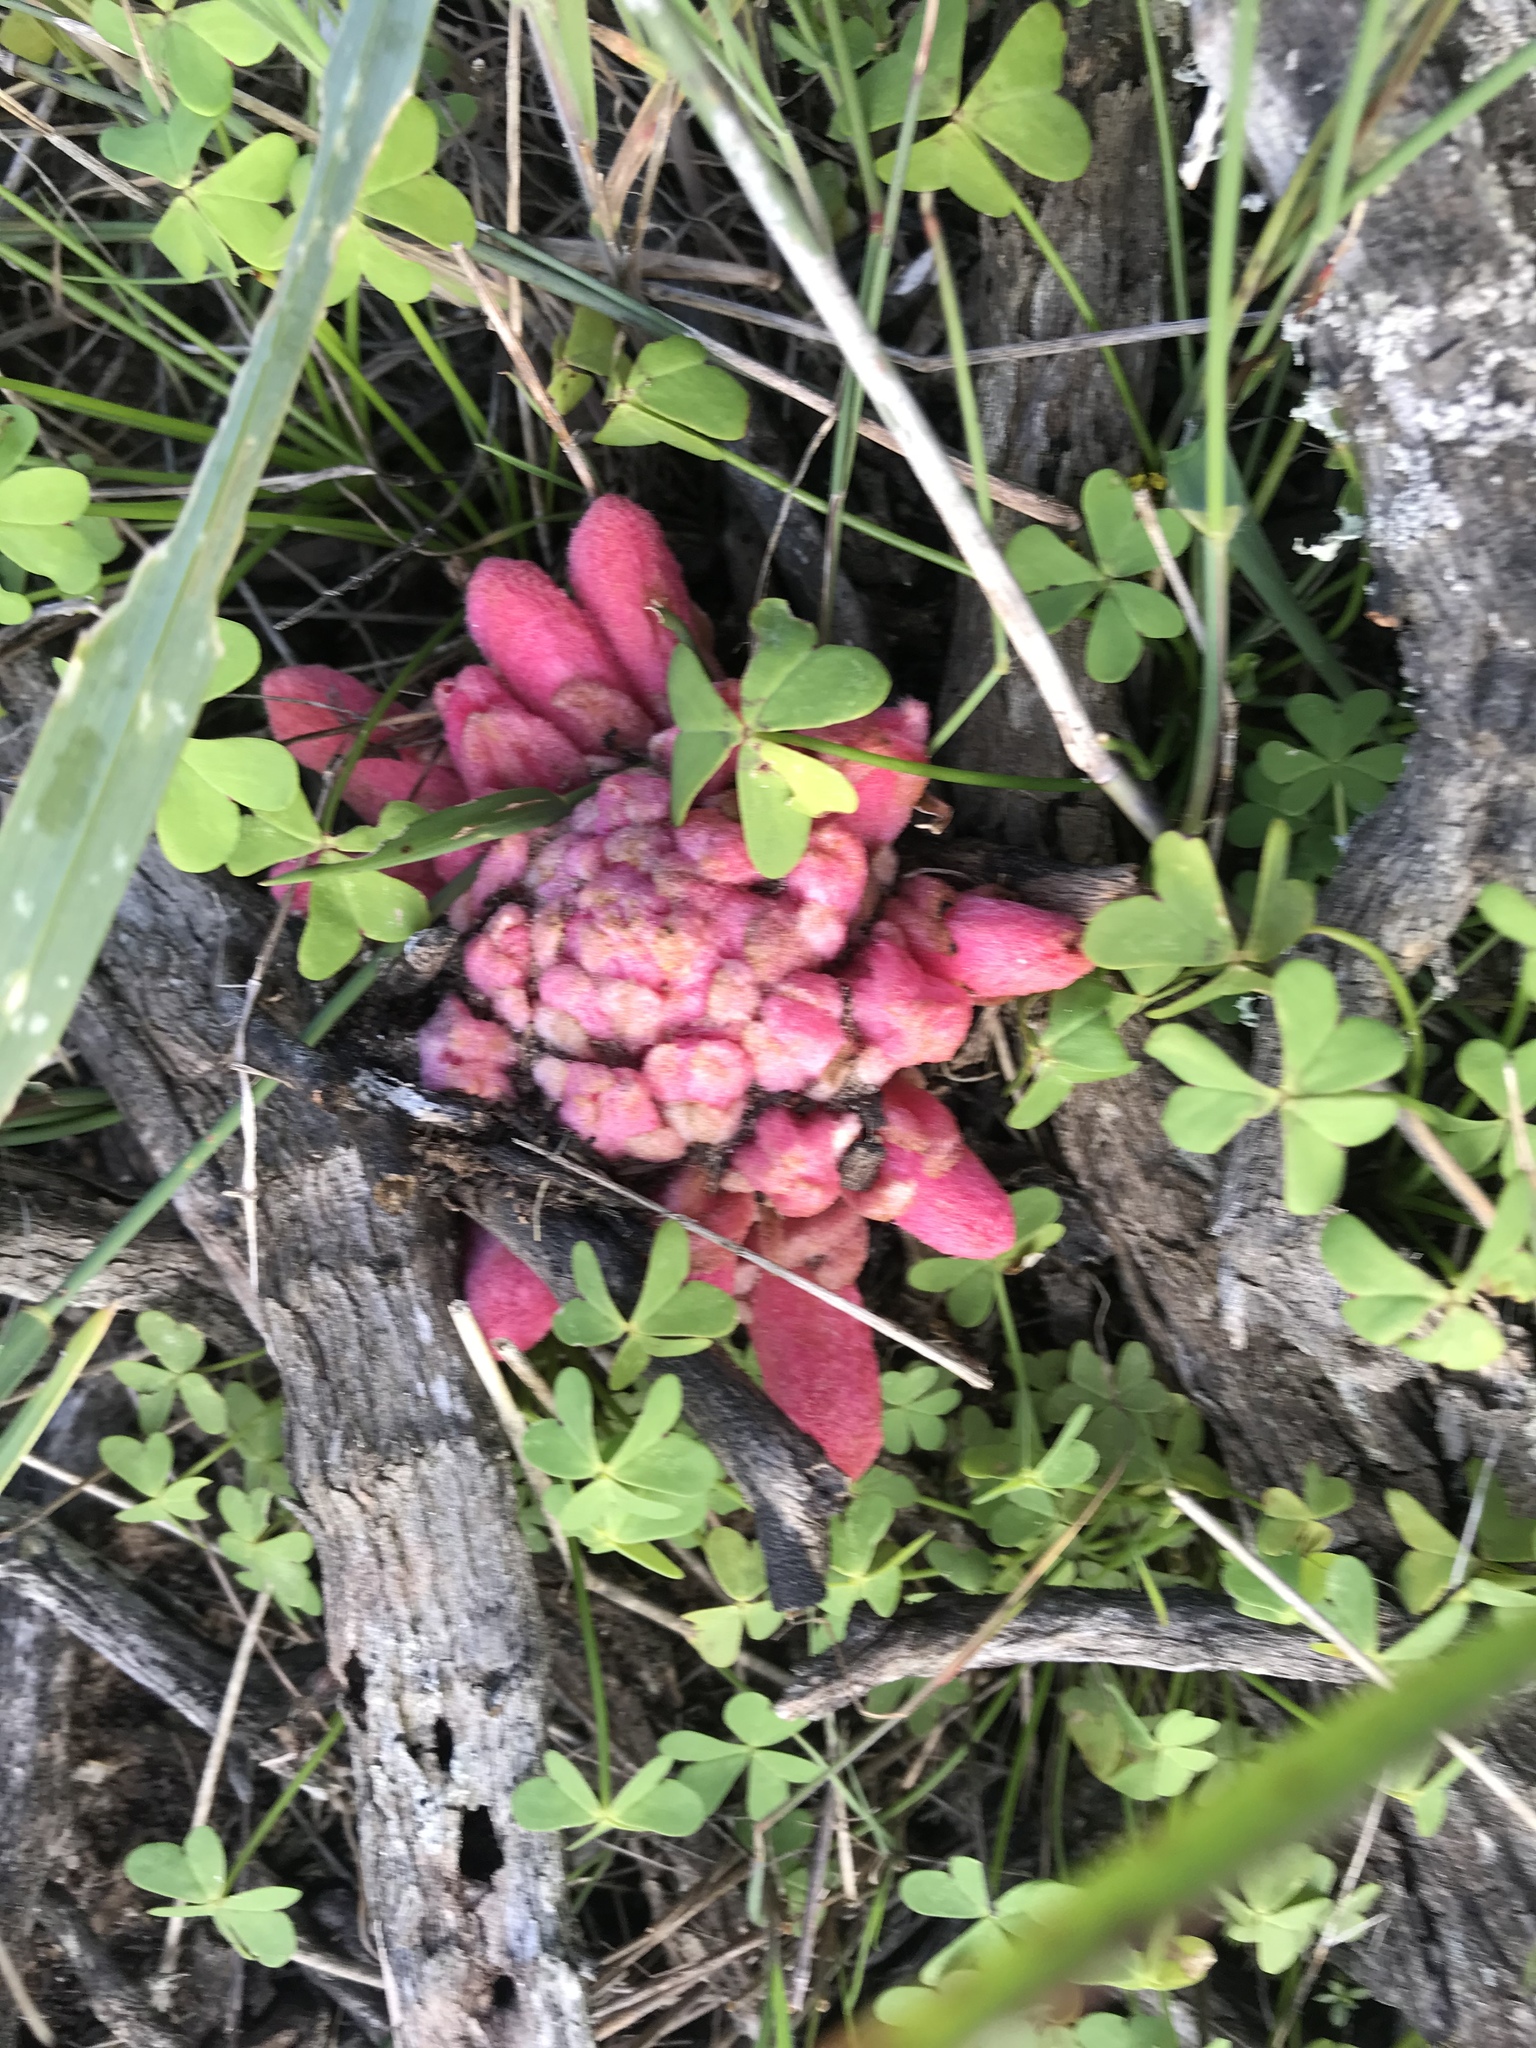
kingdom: Plantae
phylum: Tracheophyta
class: Magnoliopsida
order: Lamiales
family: Orobanchaceae
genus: Hyobanche
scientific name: Hyobanche sanguinea
